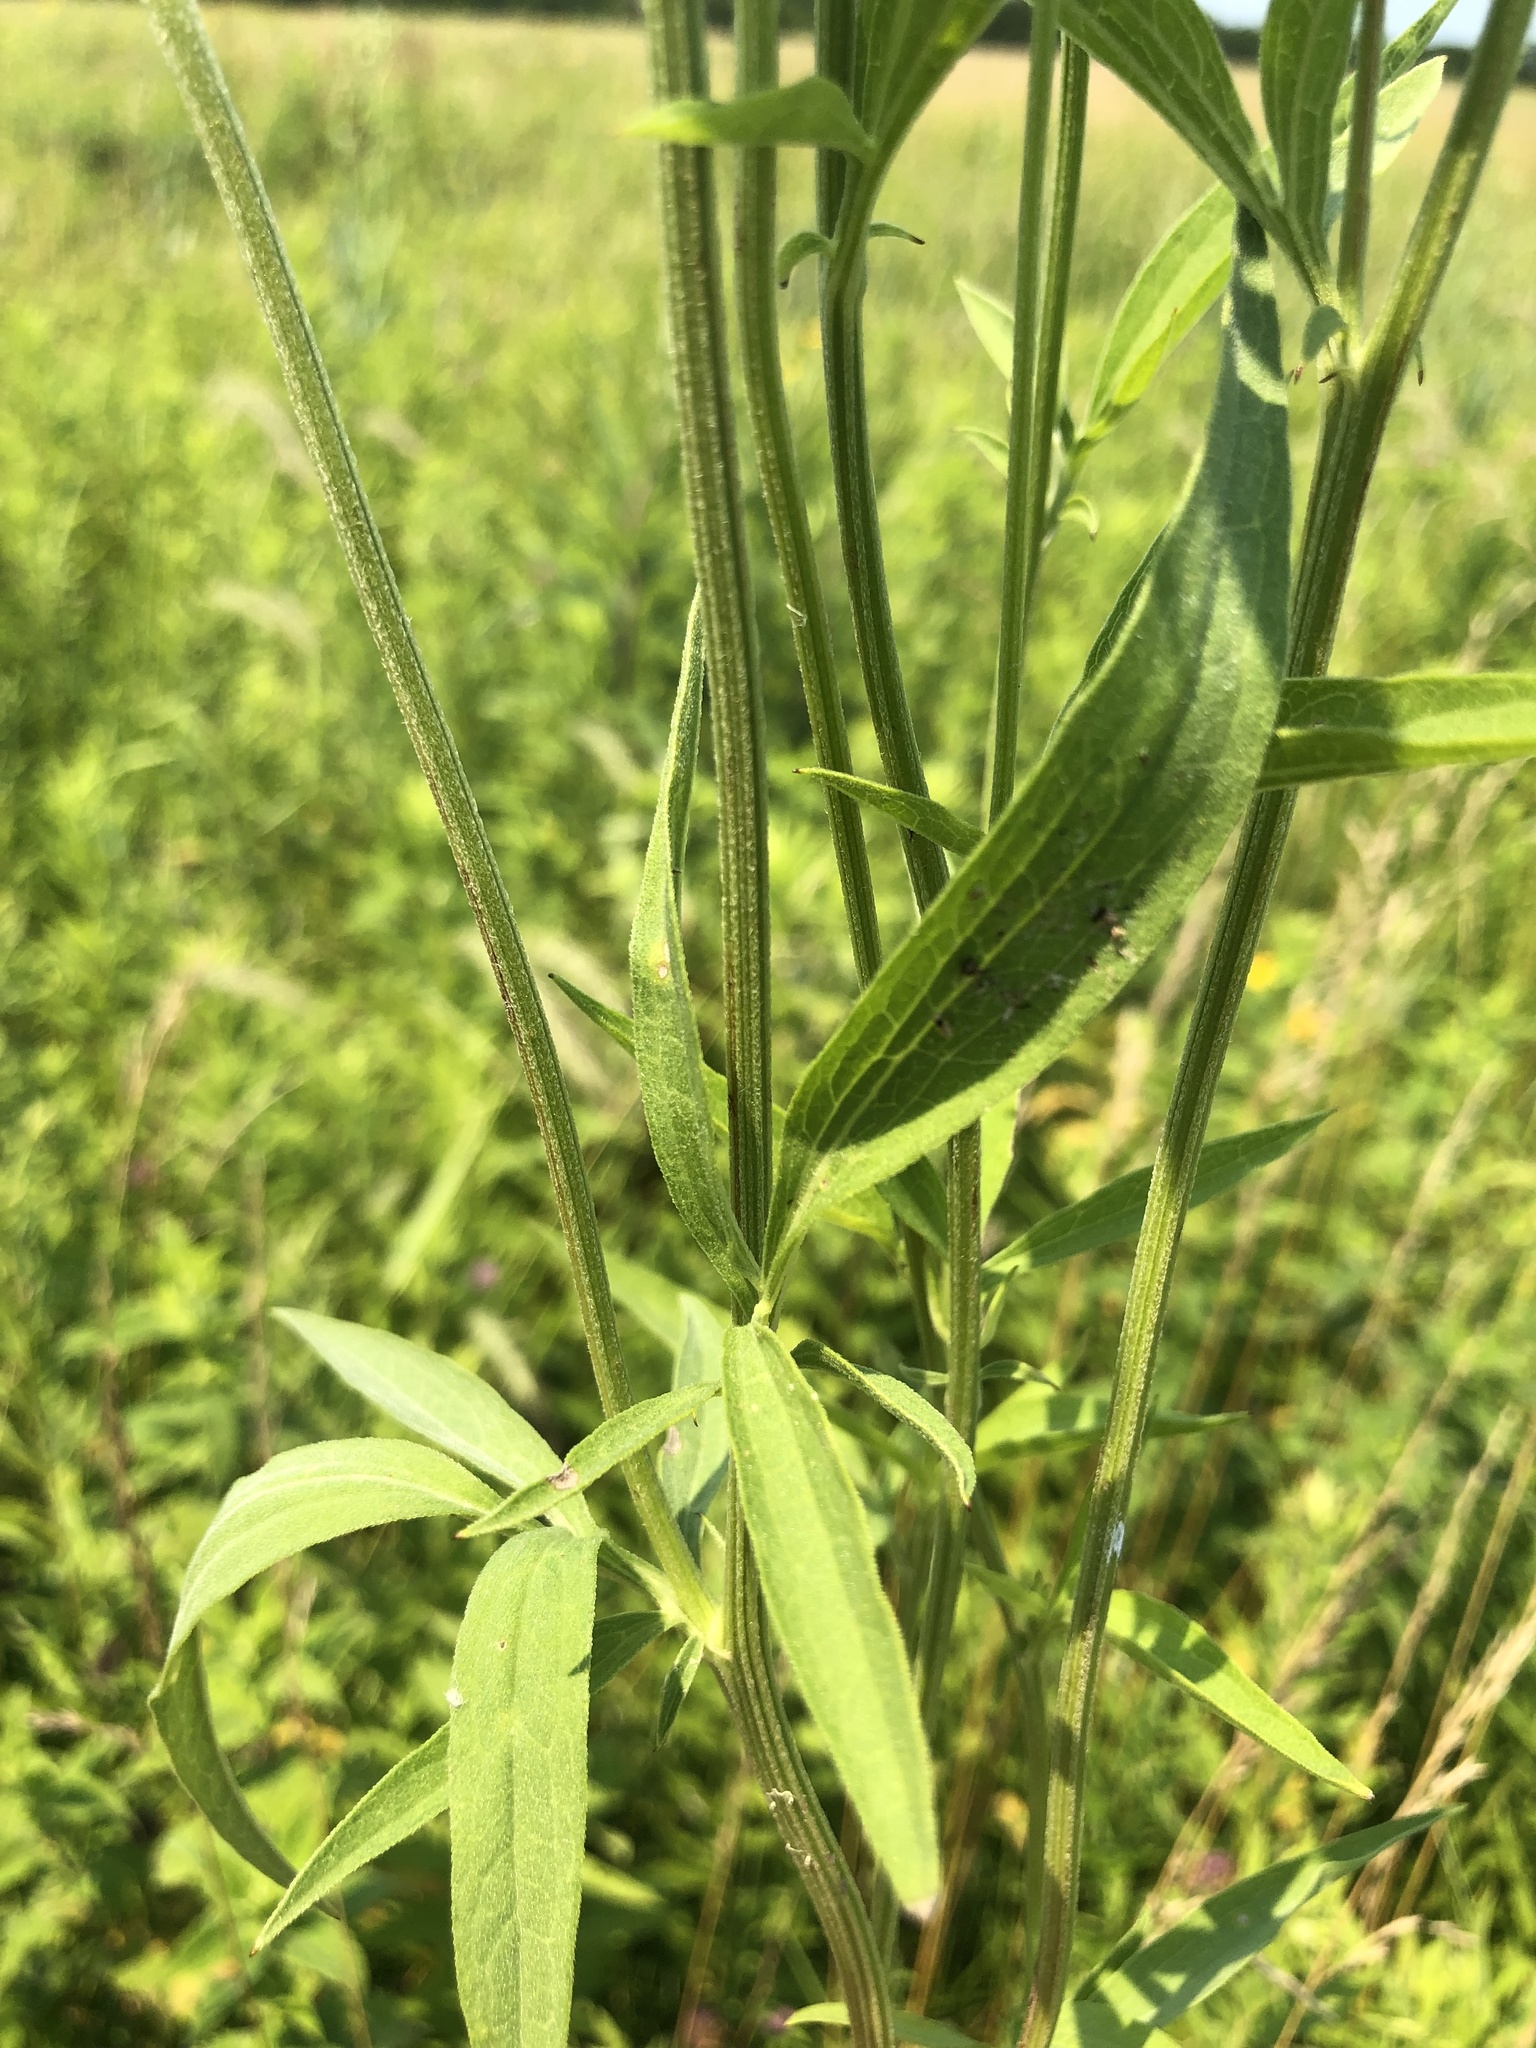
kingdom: Plantae
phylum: Tracheophyta
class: Magnoliopsida
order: Asterales
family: Asteraceae
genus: Ratibida
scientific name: Ratibida pinnata
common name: Drooping prairie-coneflower
